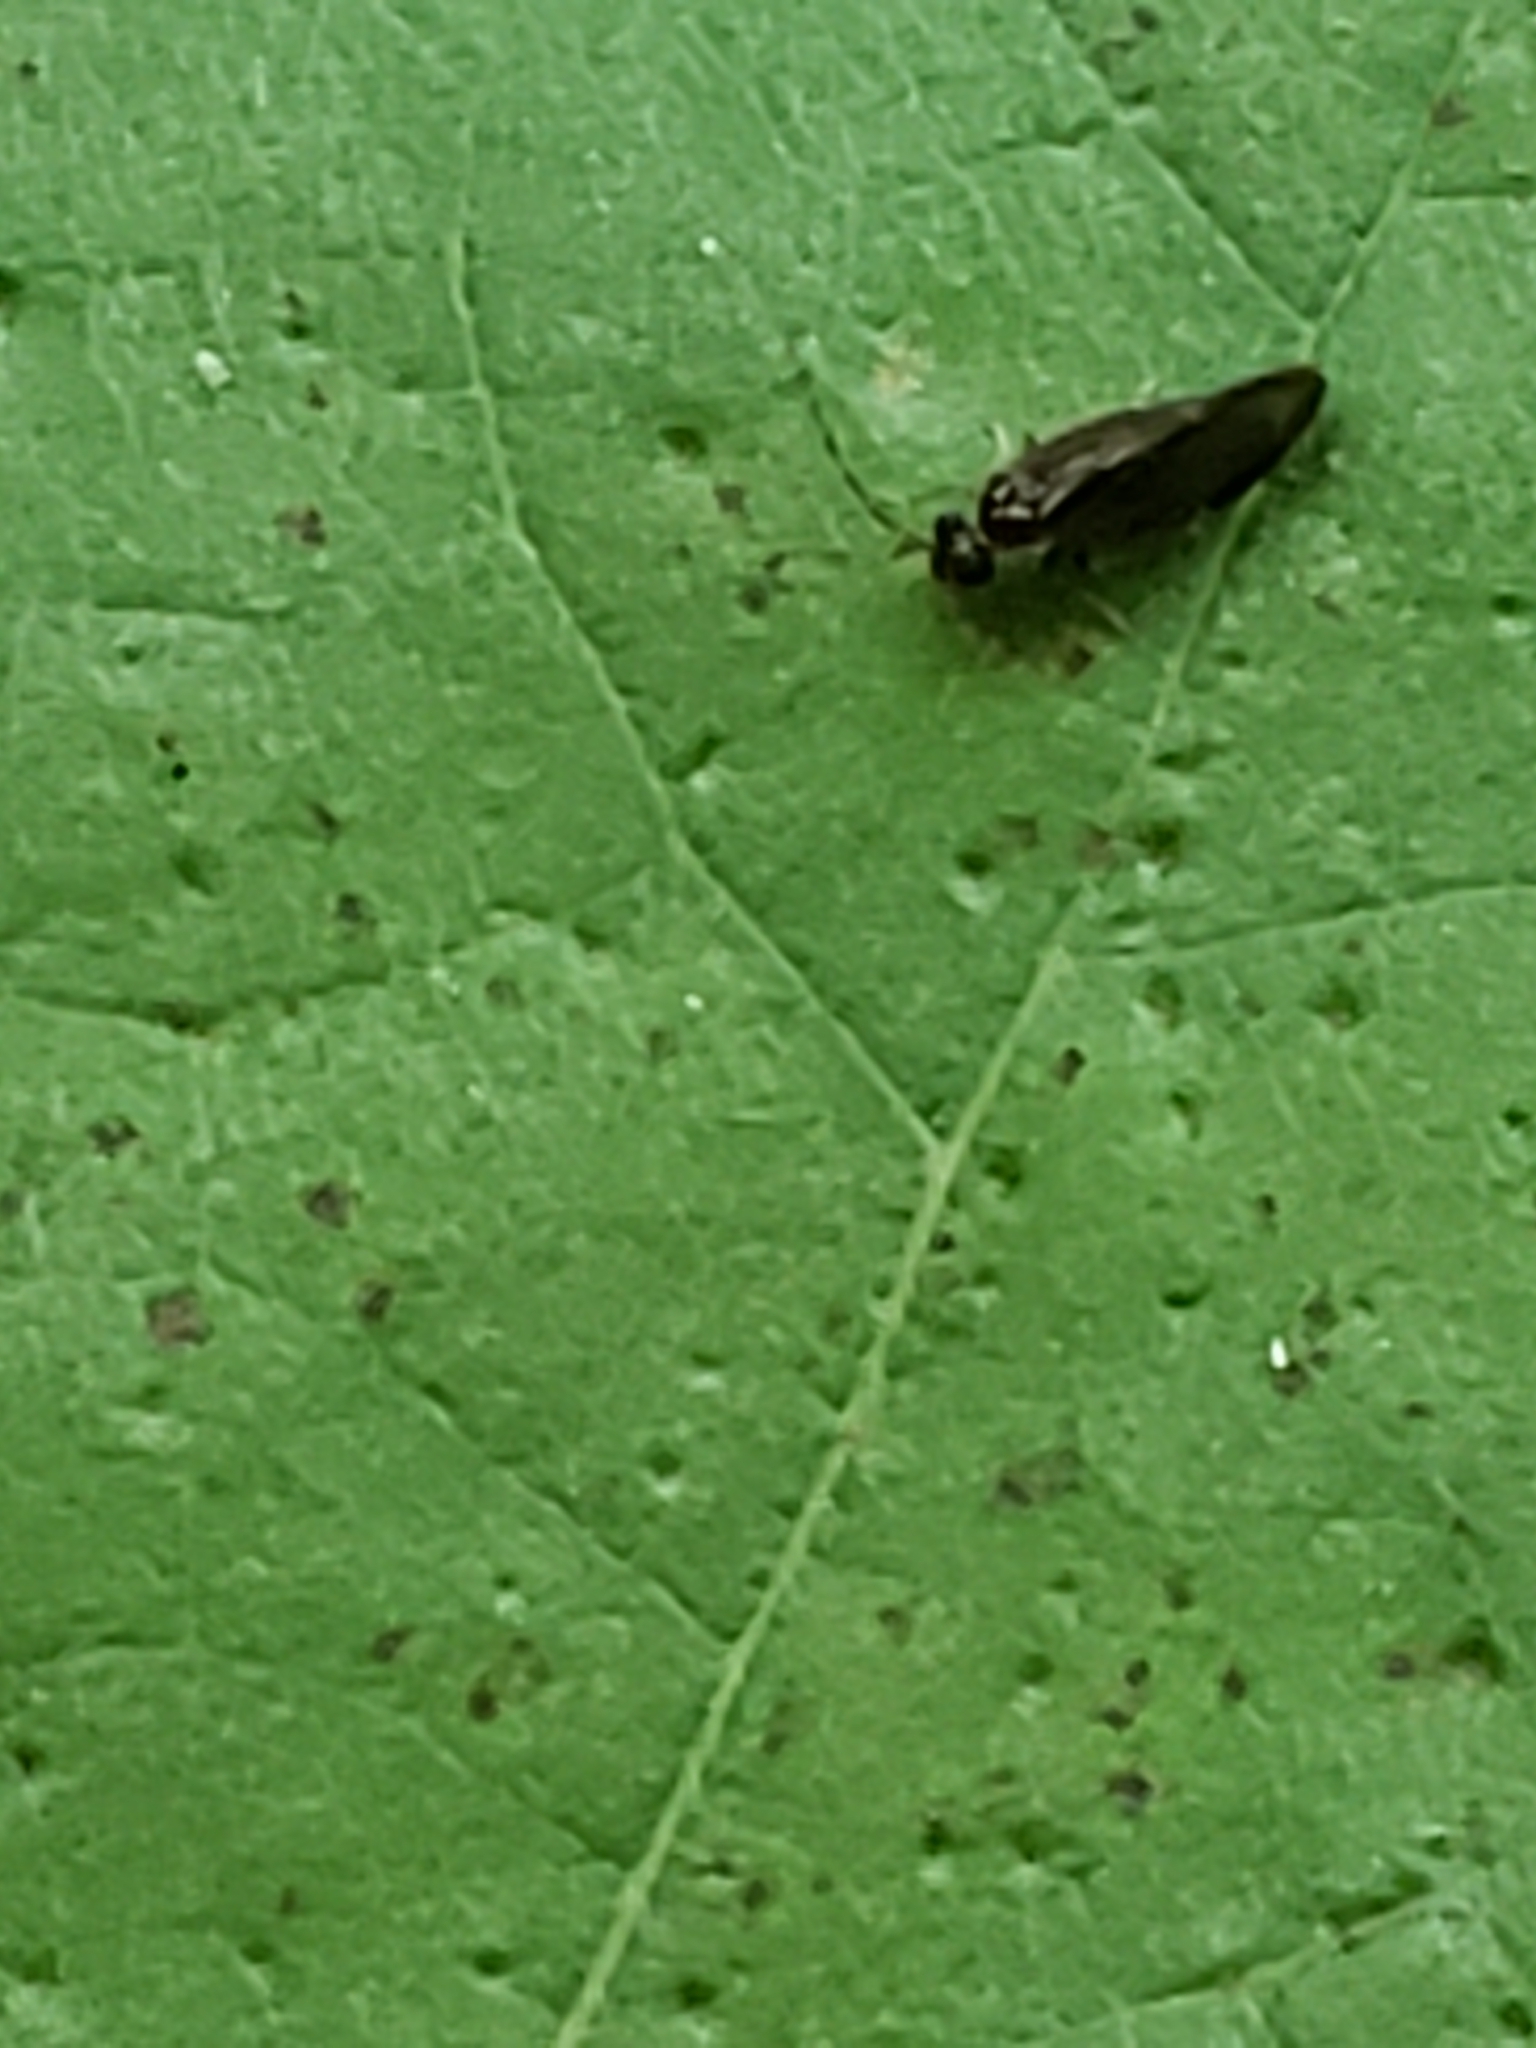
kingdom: Animalia
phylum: Arthropoda
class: Insecta
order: Psocodea
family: Amphipsocidae
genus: Polypsocus
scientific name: Polypsocus corruptus
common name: Corrupt barklouse
